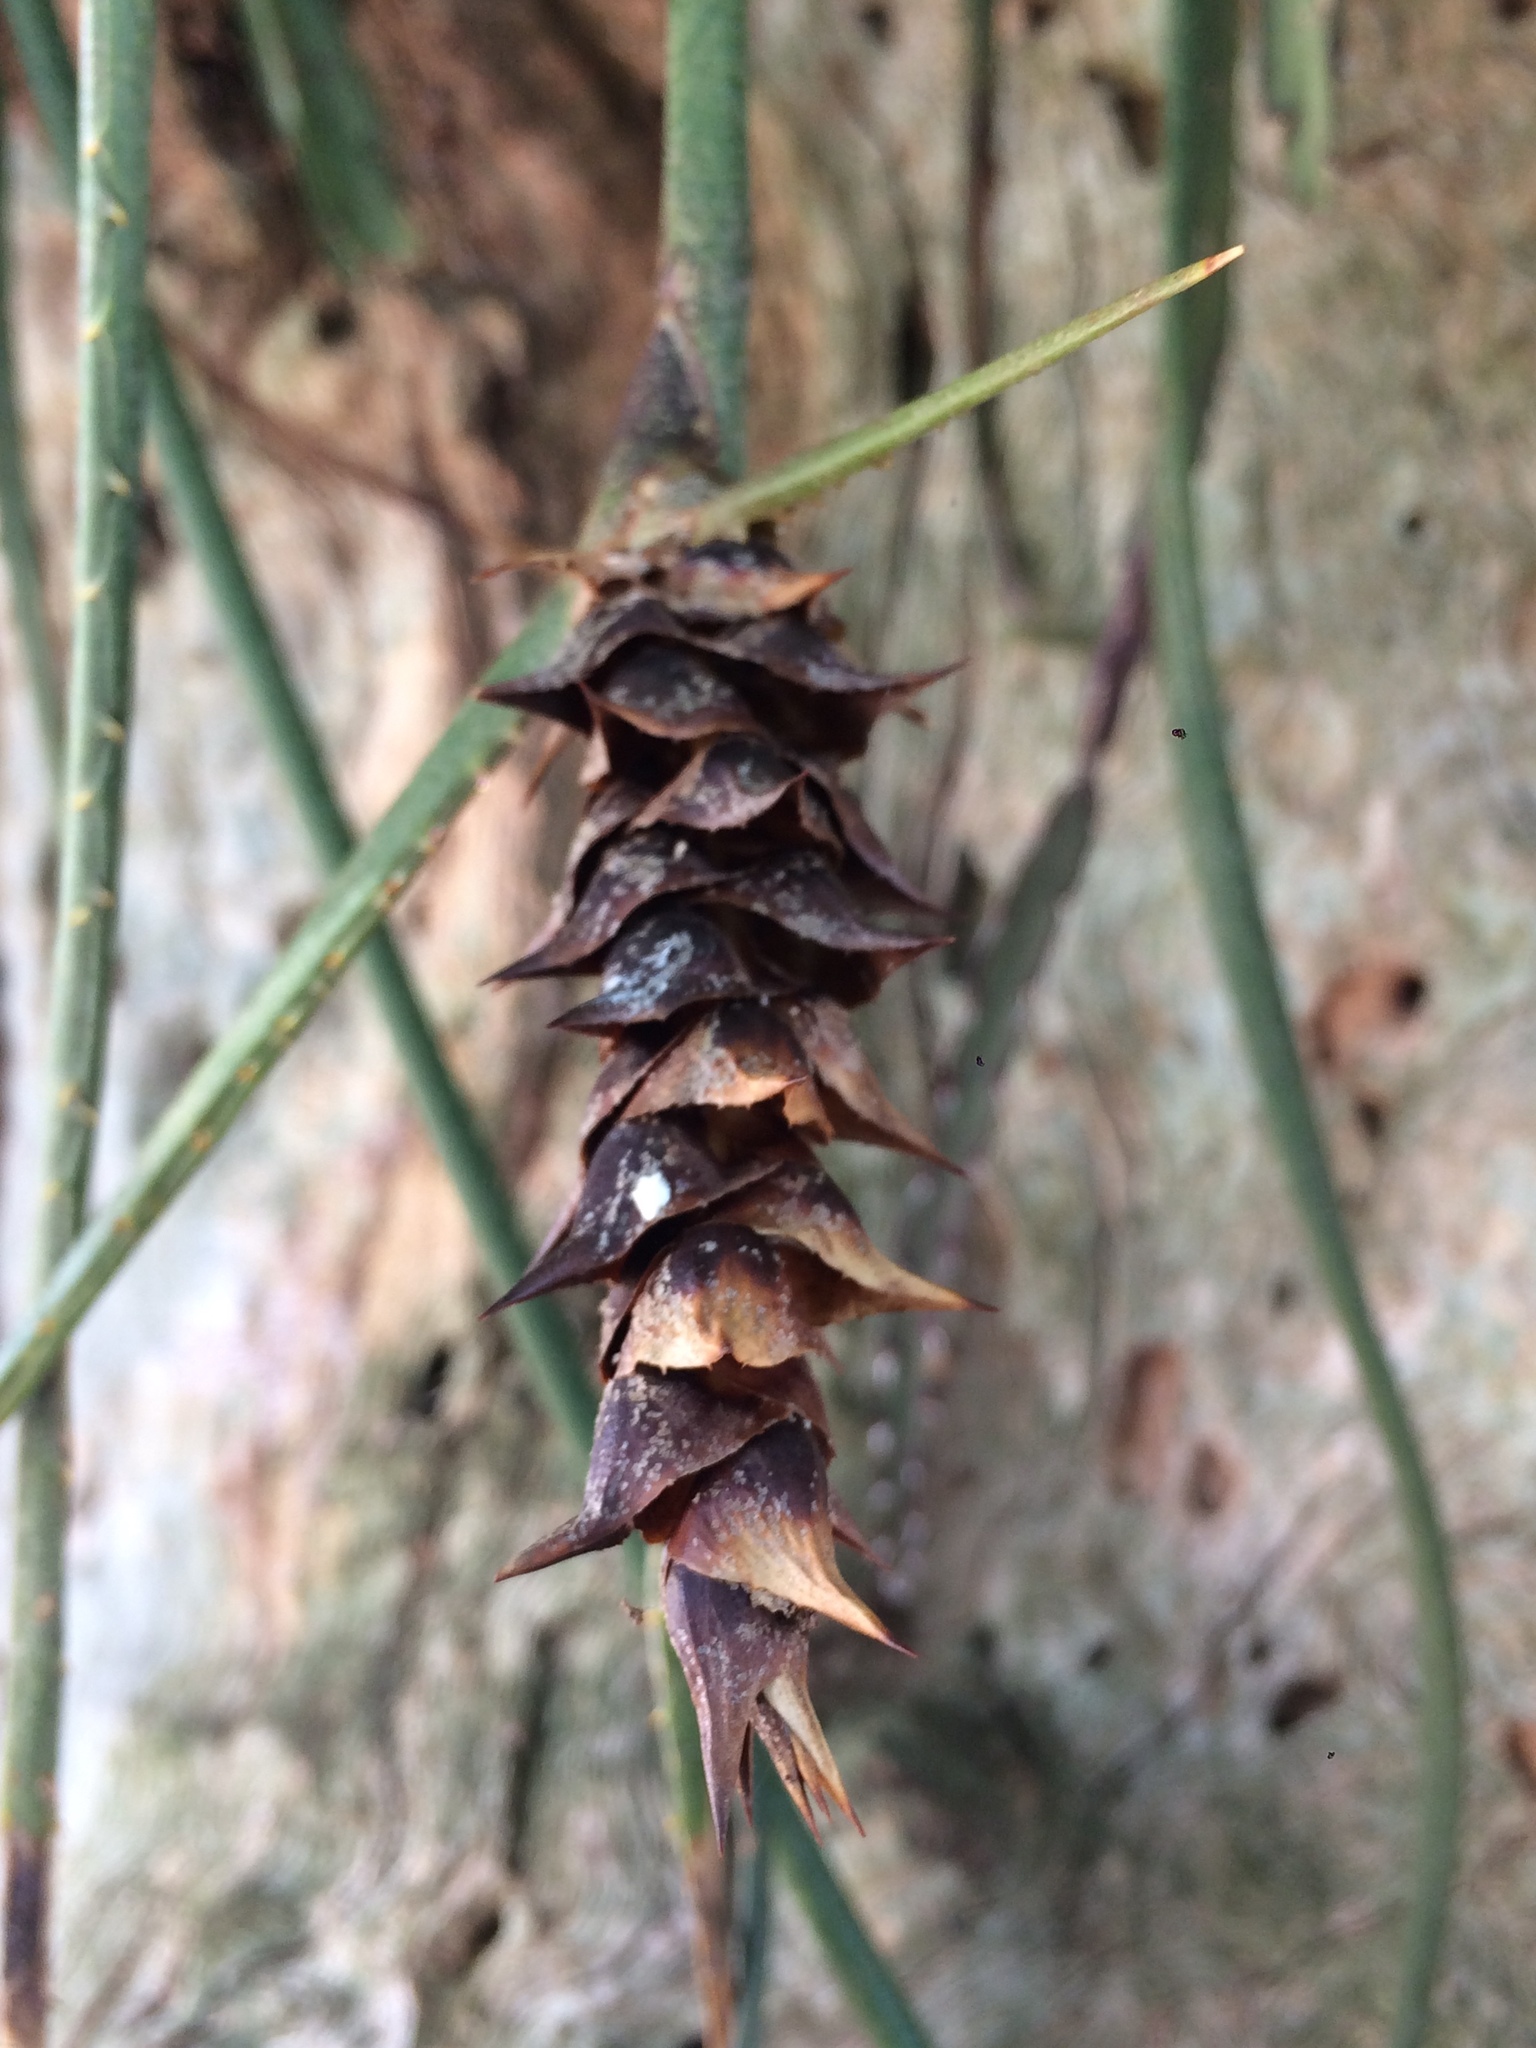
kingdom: Plantae
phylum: Tracheophyta
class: Liliopsida
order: Poales
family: Bromeliaceae
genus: Acanthostachys
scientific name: Acanthostachys strobilacea
